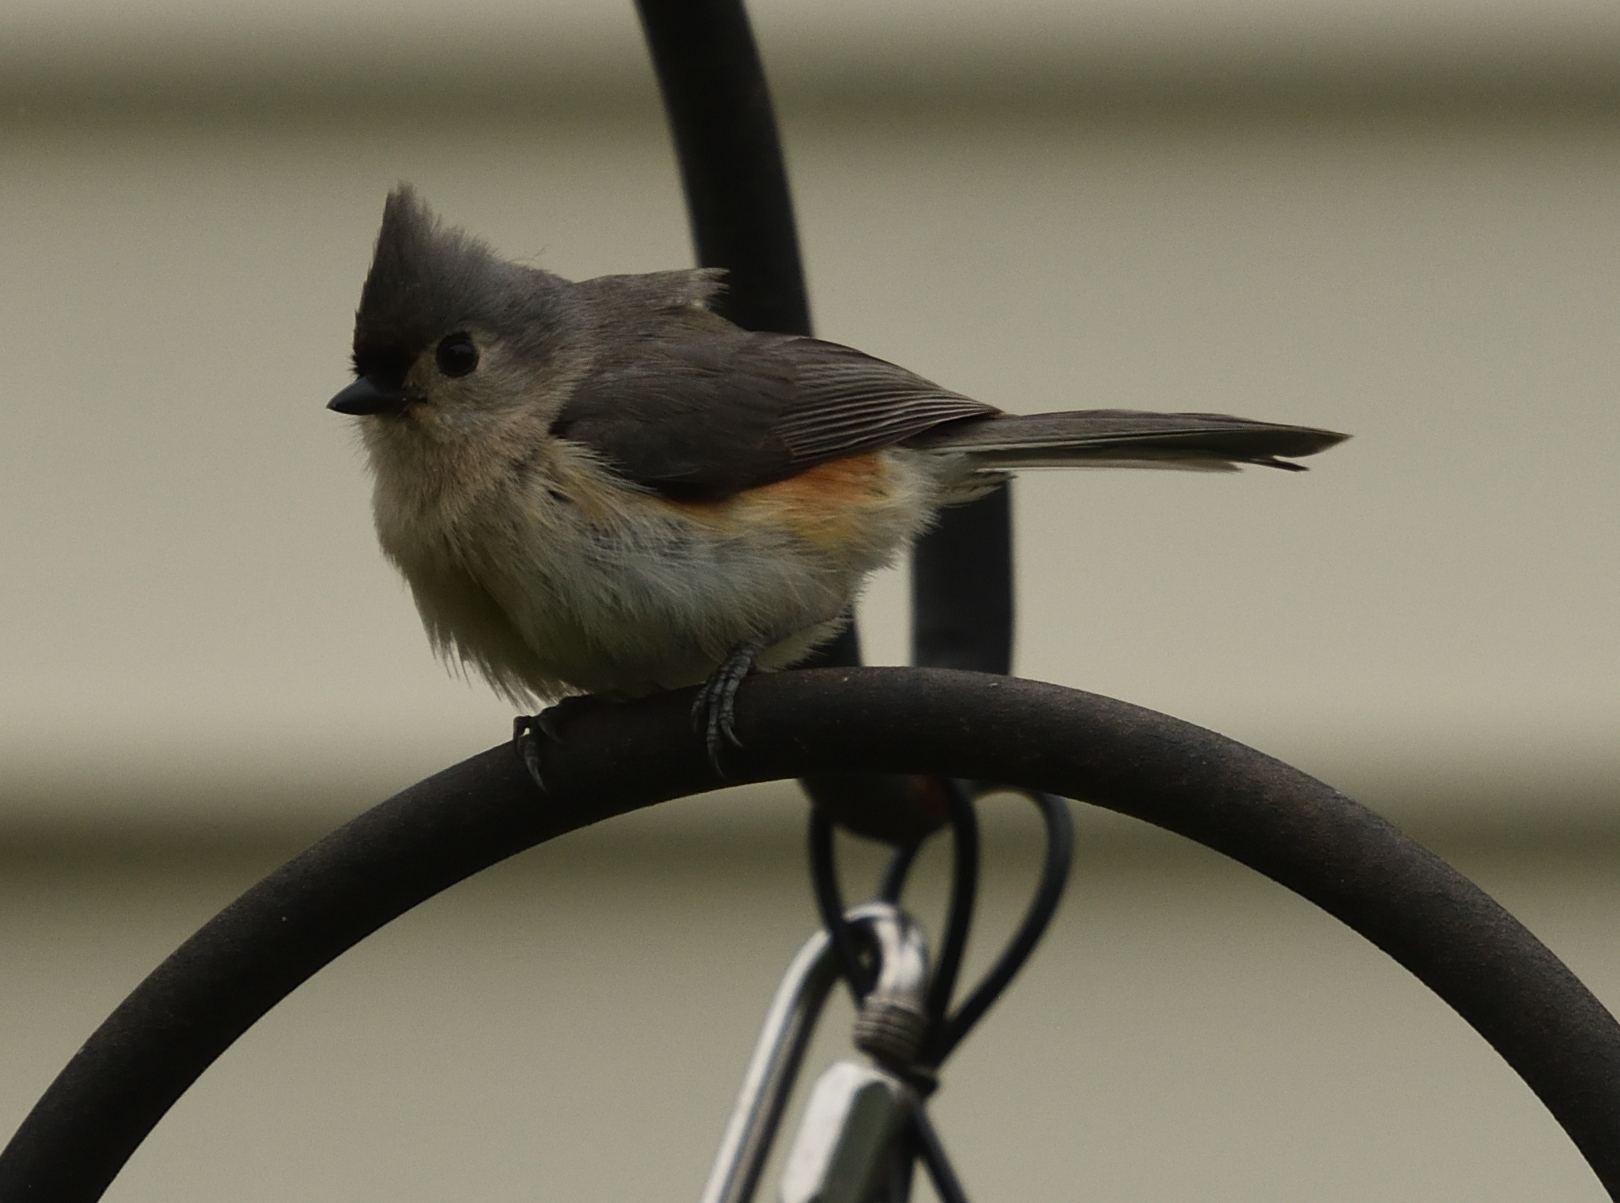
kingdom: Animalia
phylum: Chordata
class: Aves
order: Passeriformes
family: Paridae
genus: Baeolophus
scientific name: Baeolophus bicolor
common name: Tufted titmouse
